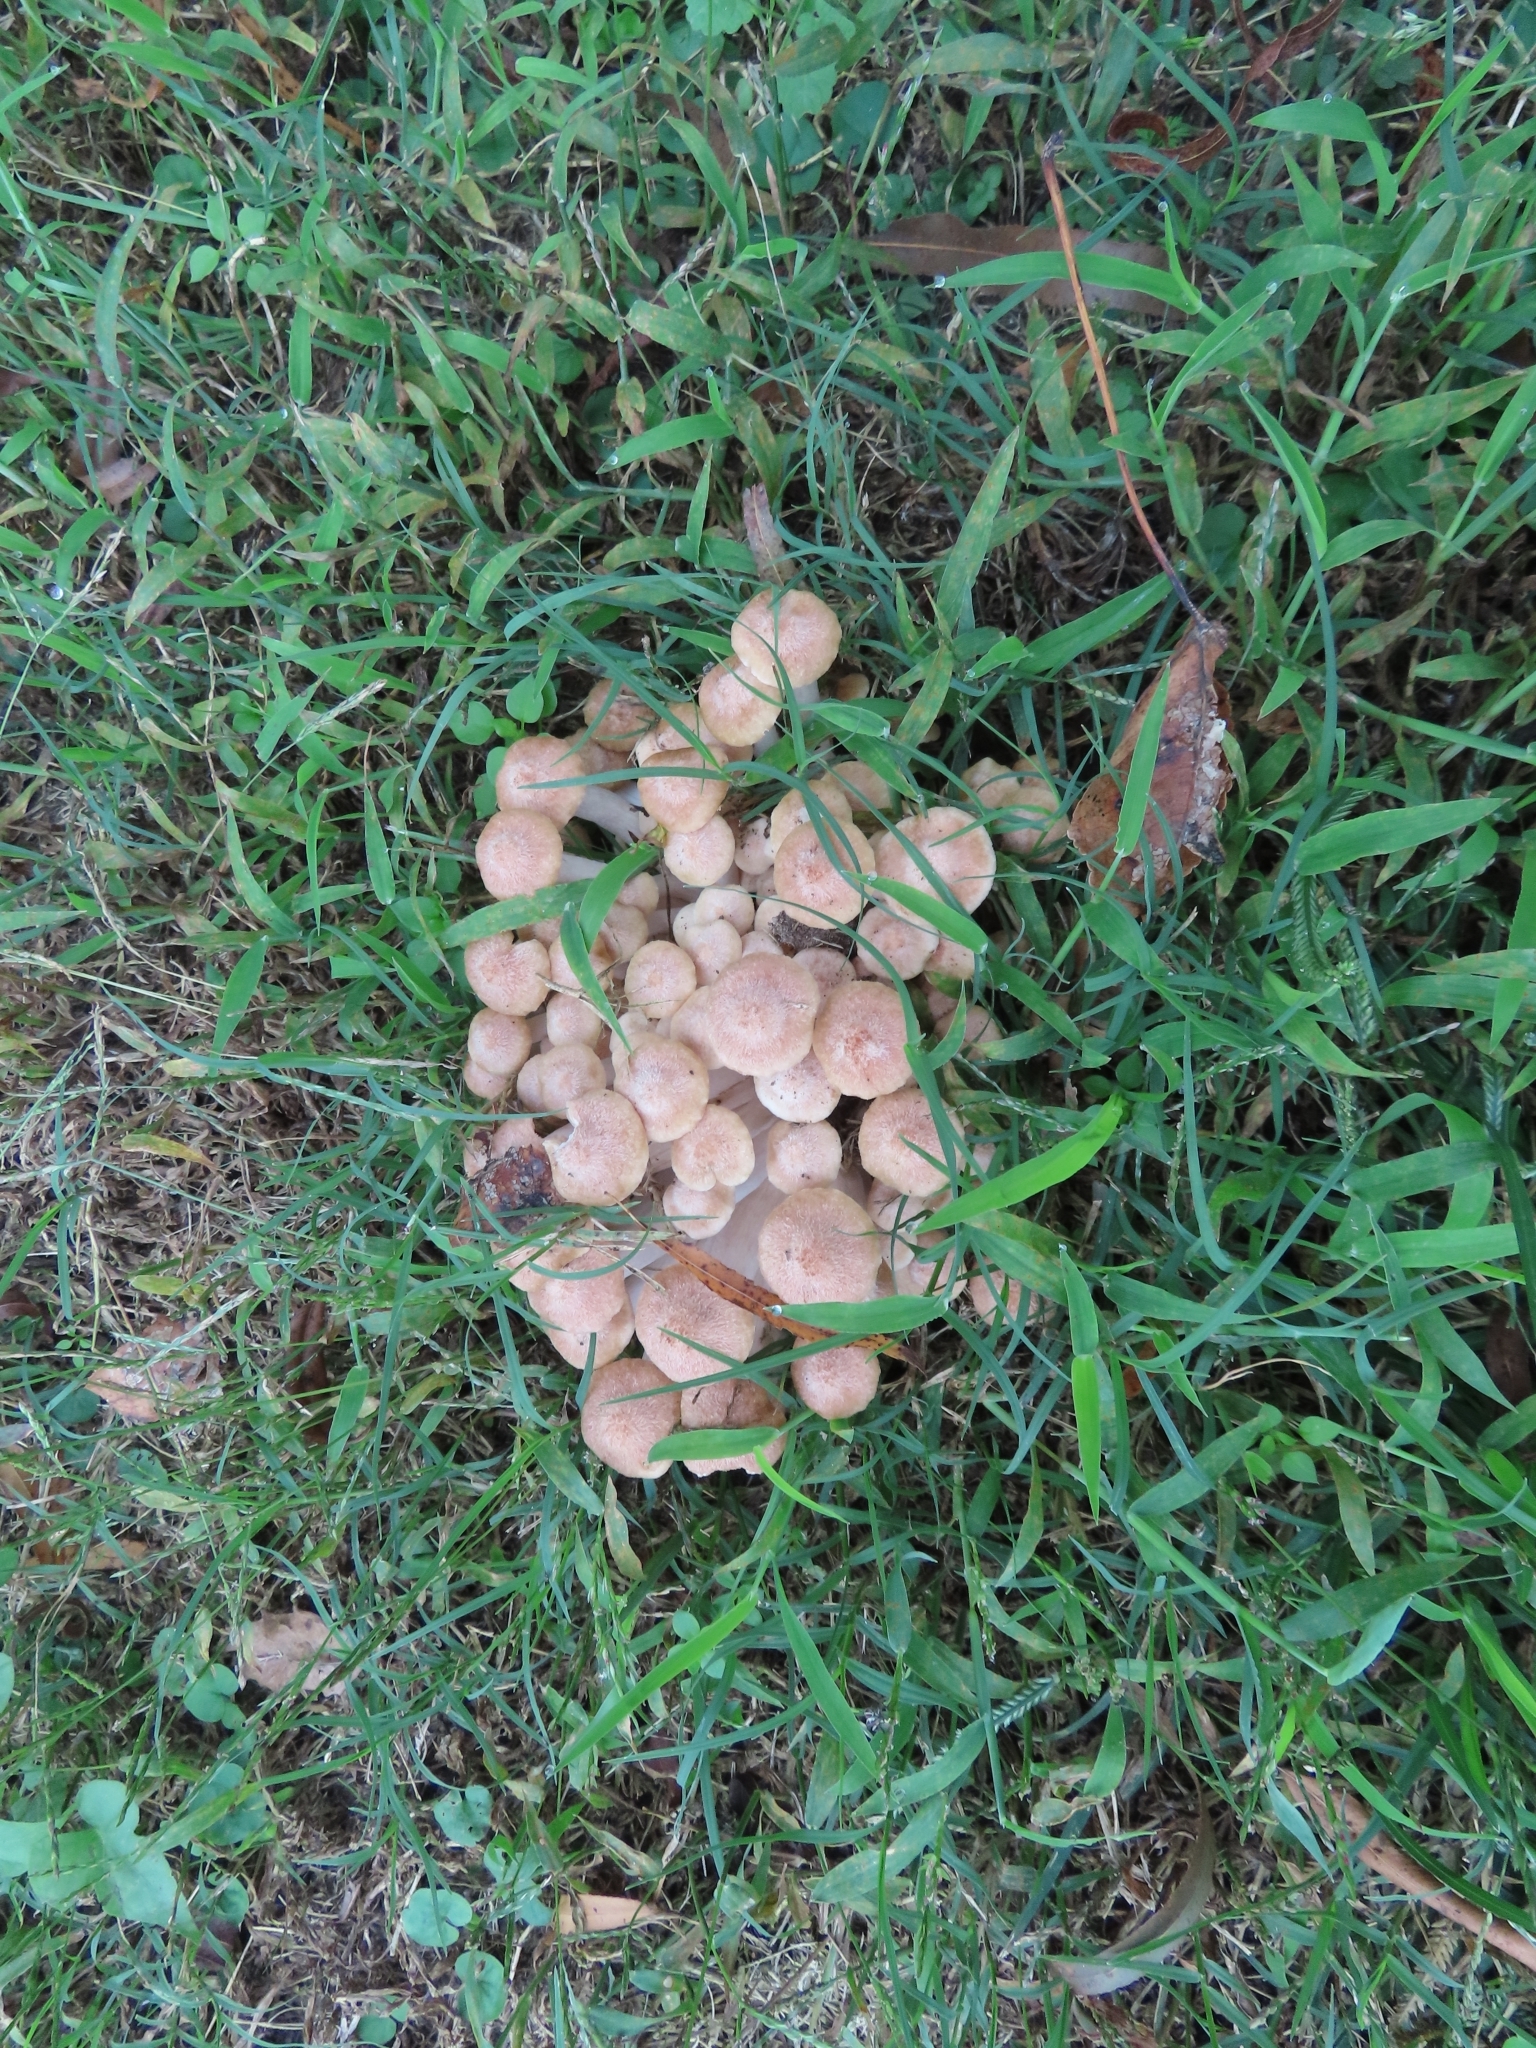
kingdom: Fungi
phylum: Basidiomycota
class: Agaricomycetes
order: Agaricales
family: Physalacriaceae
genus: Desarmillaria
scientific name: Desarmillaria caespitosa
